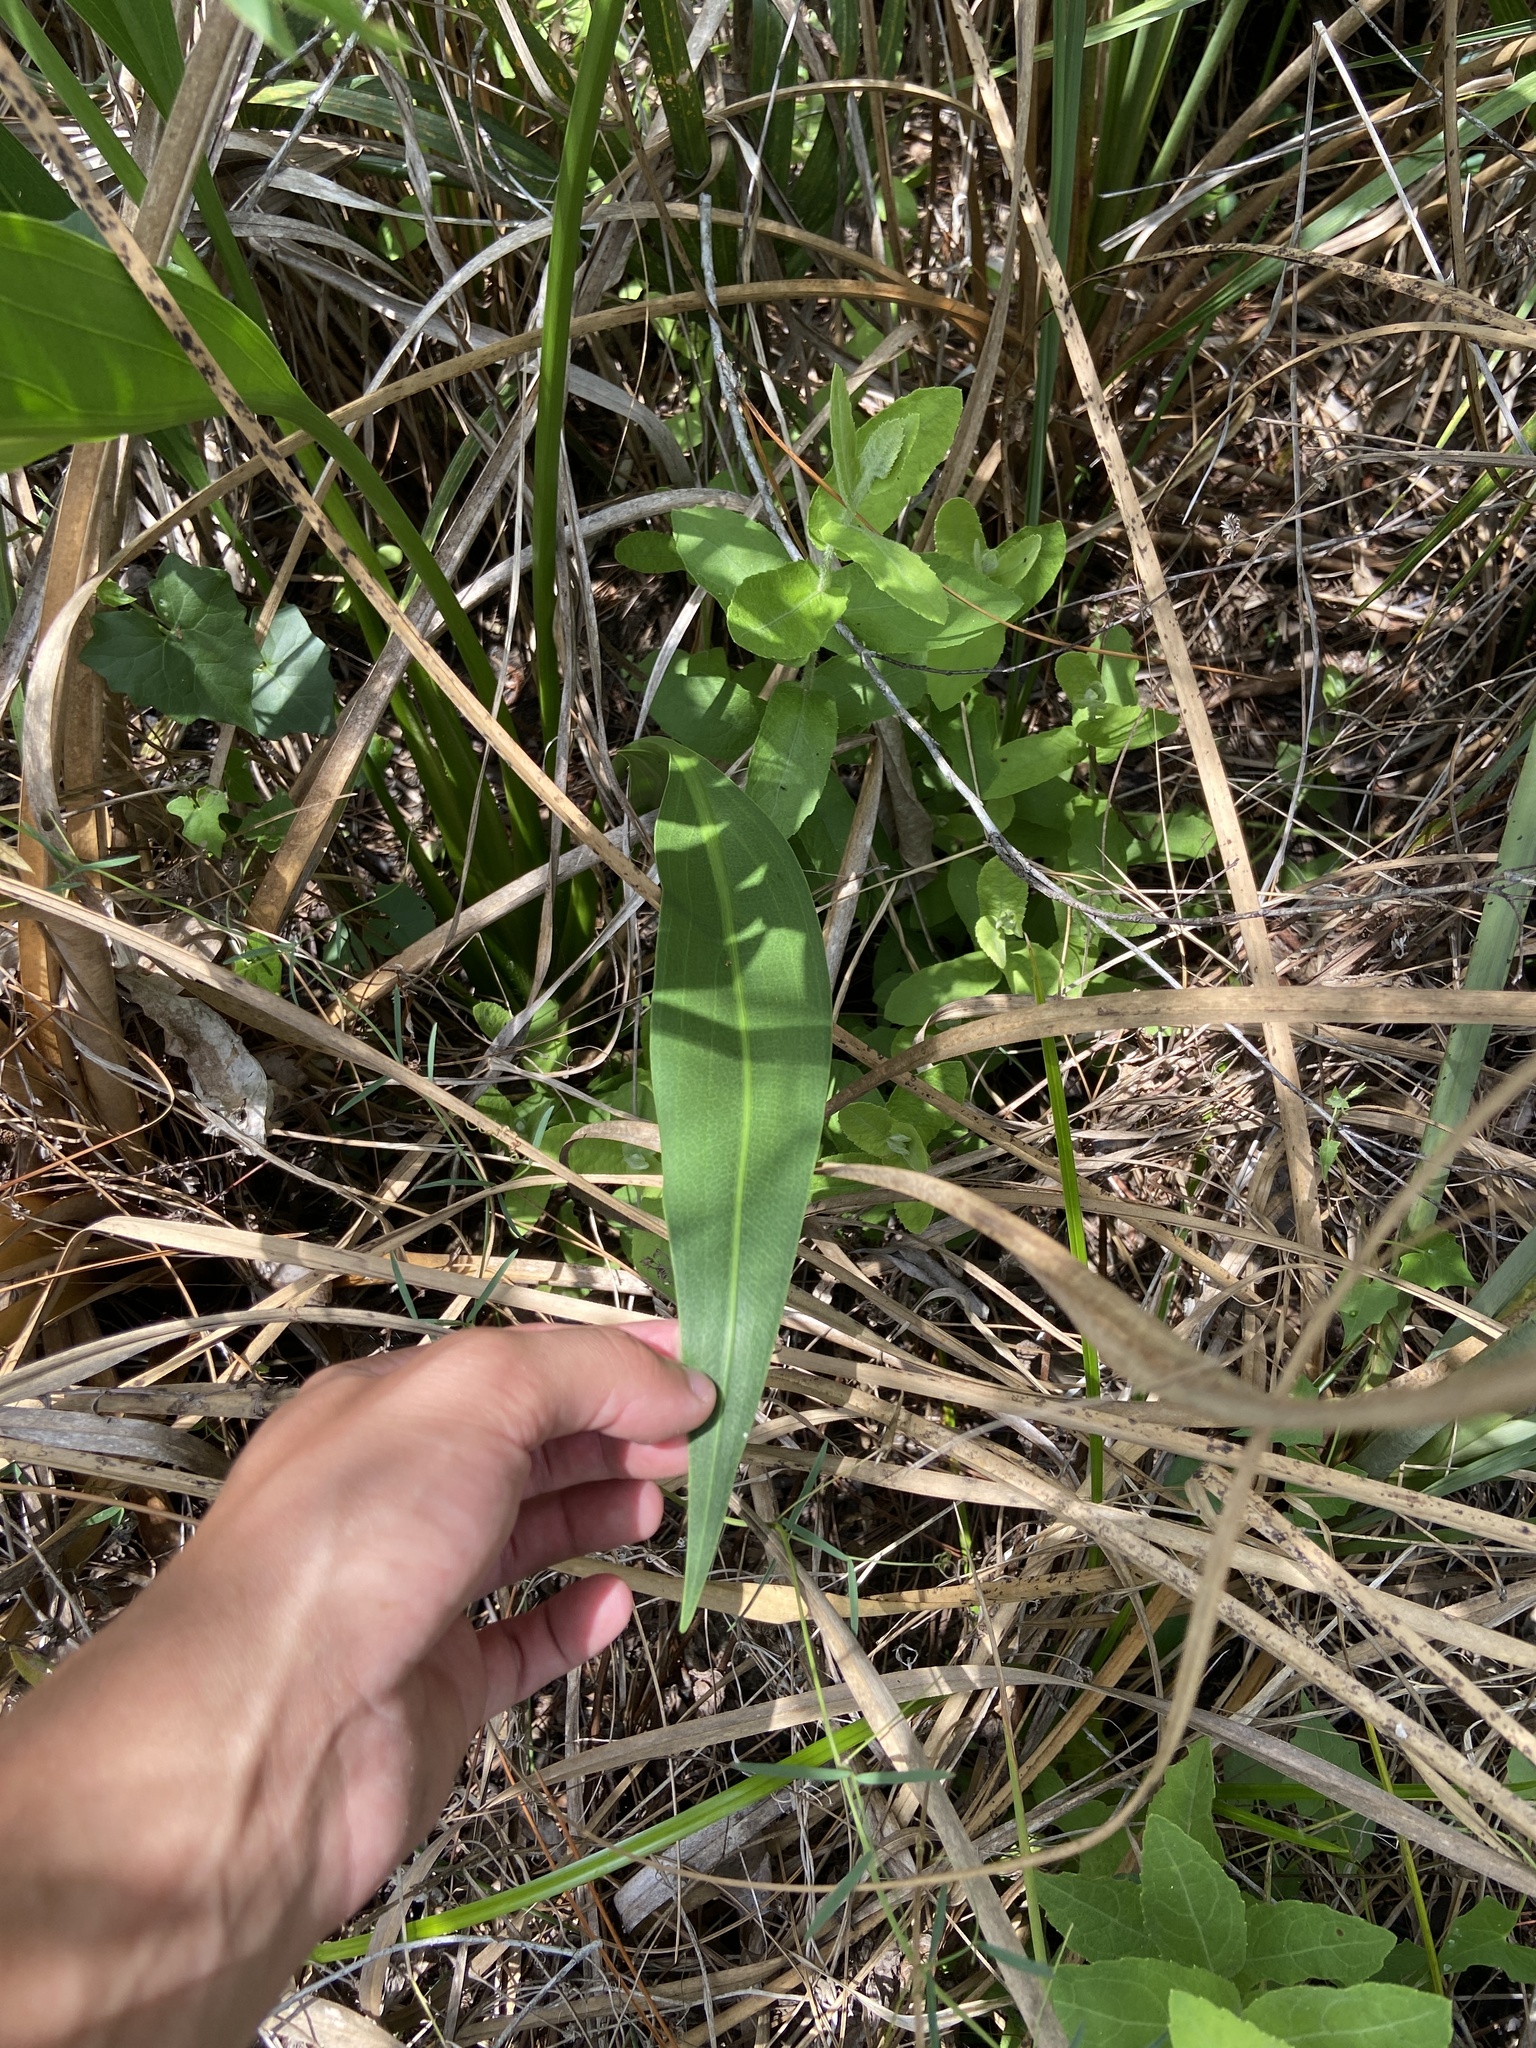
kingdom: Plantae
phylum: Tracheophyta
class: Liliopsida
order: Alismatales
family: Alismataceae
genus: Sagittaria
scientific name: Sagittaria lancifolia
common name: Lance-leaf arrowhead
